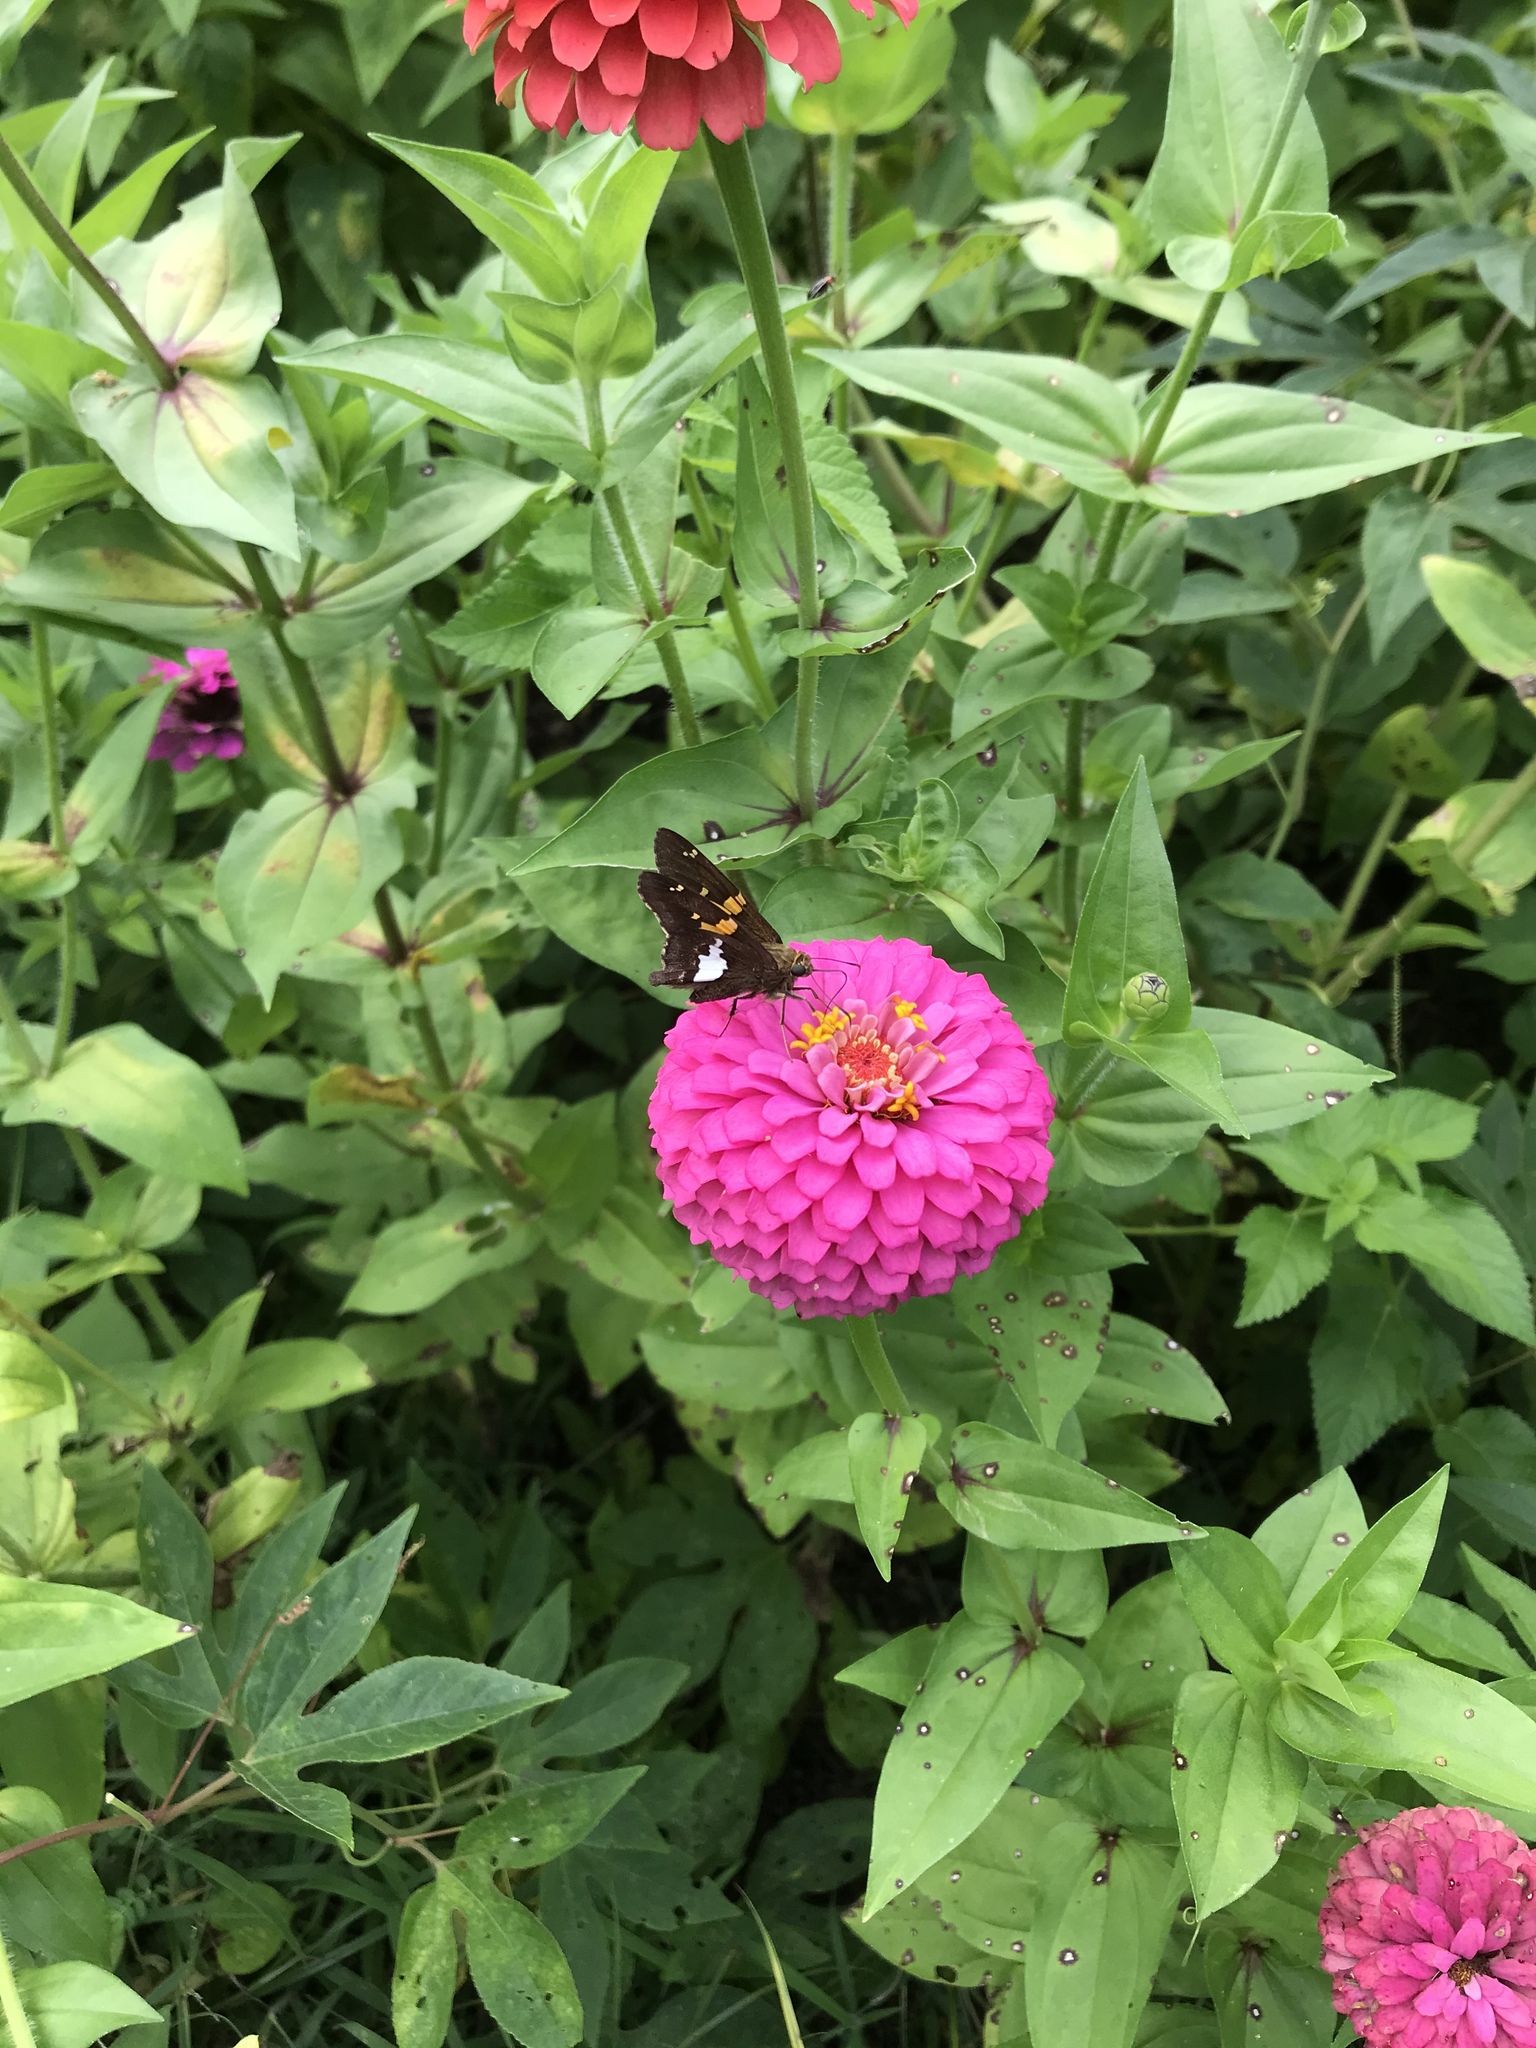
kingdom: Animalia
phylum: Arthropoda
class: Insecta
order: Lepidoptera
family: Hesperiidae
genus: Epargyreus
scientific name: Epargyreus clarus
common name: Silver-spotted skipper
